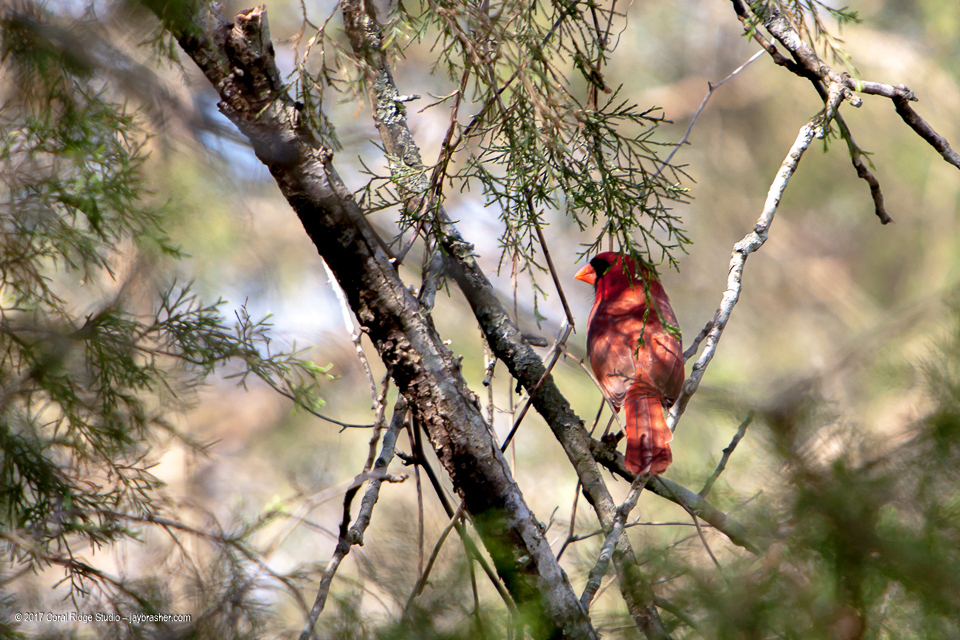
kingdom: Animalia
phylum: Chordata
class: Aves
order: Passeriformes
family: Cardinalidae
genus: Cardinalis
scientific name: Cardinalis cardinalis
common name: Northern cardinal
